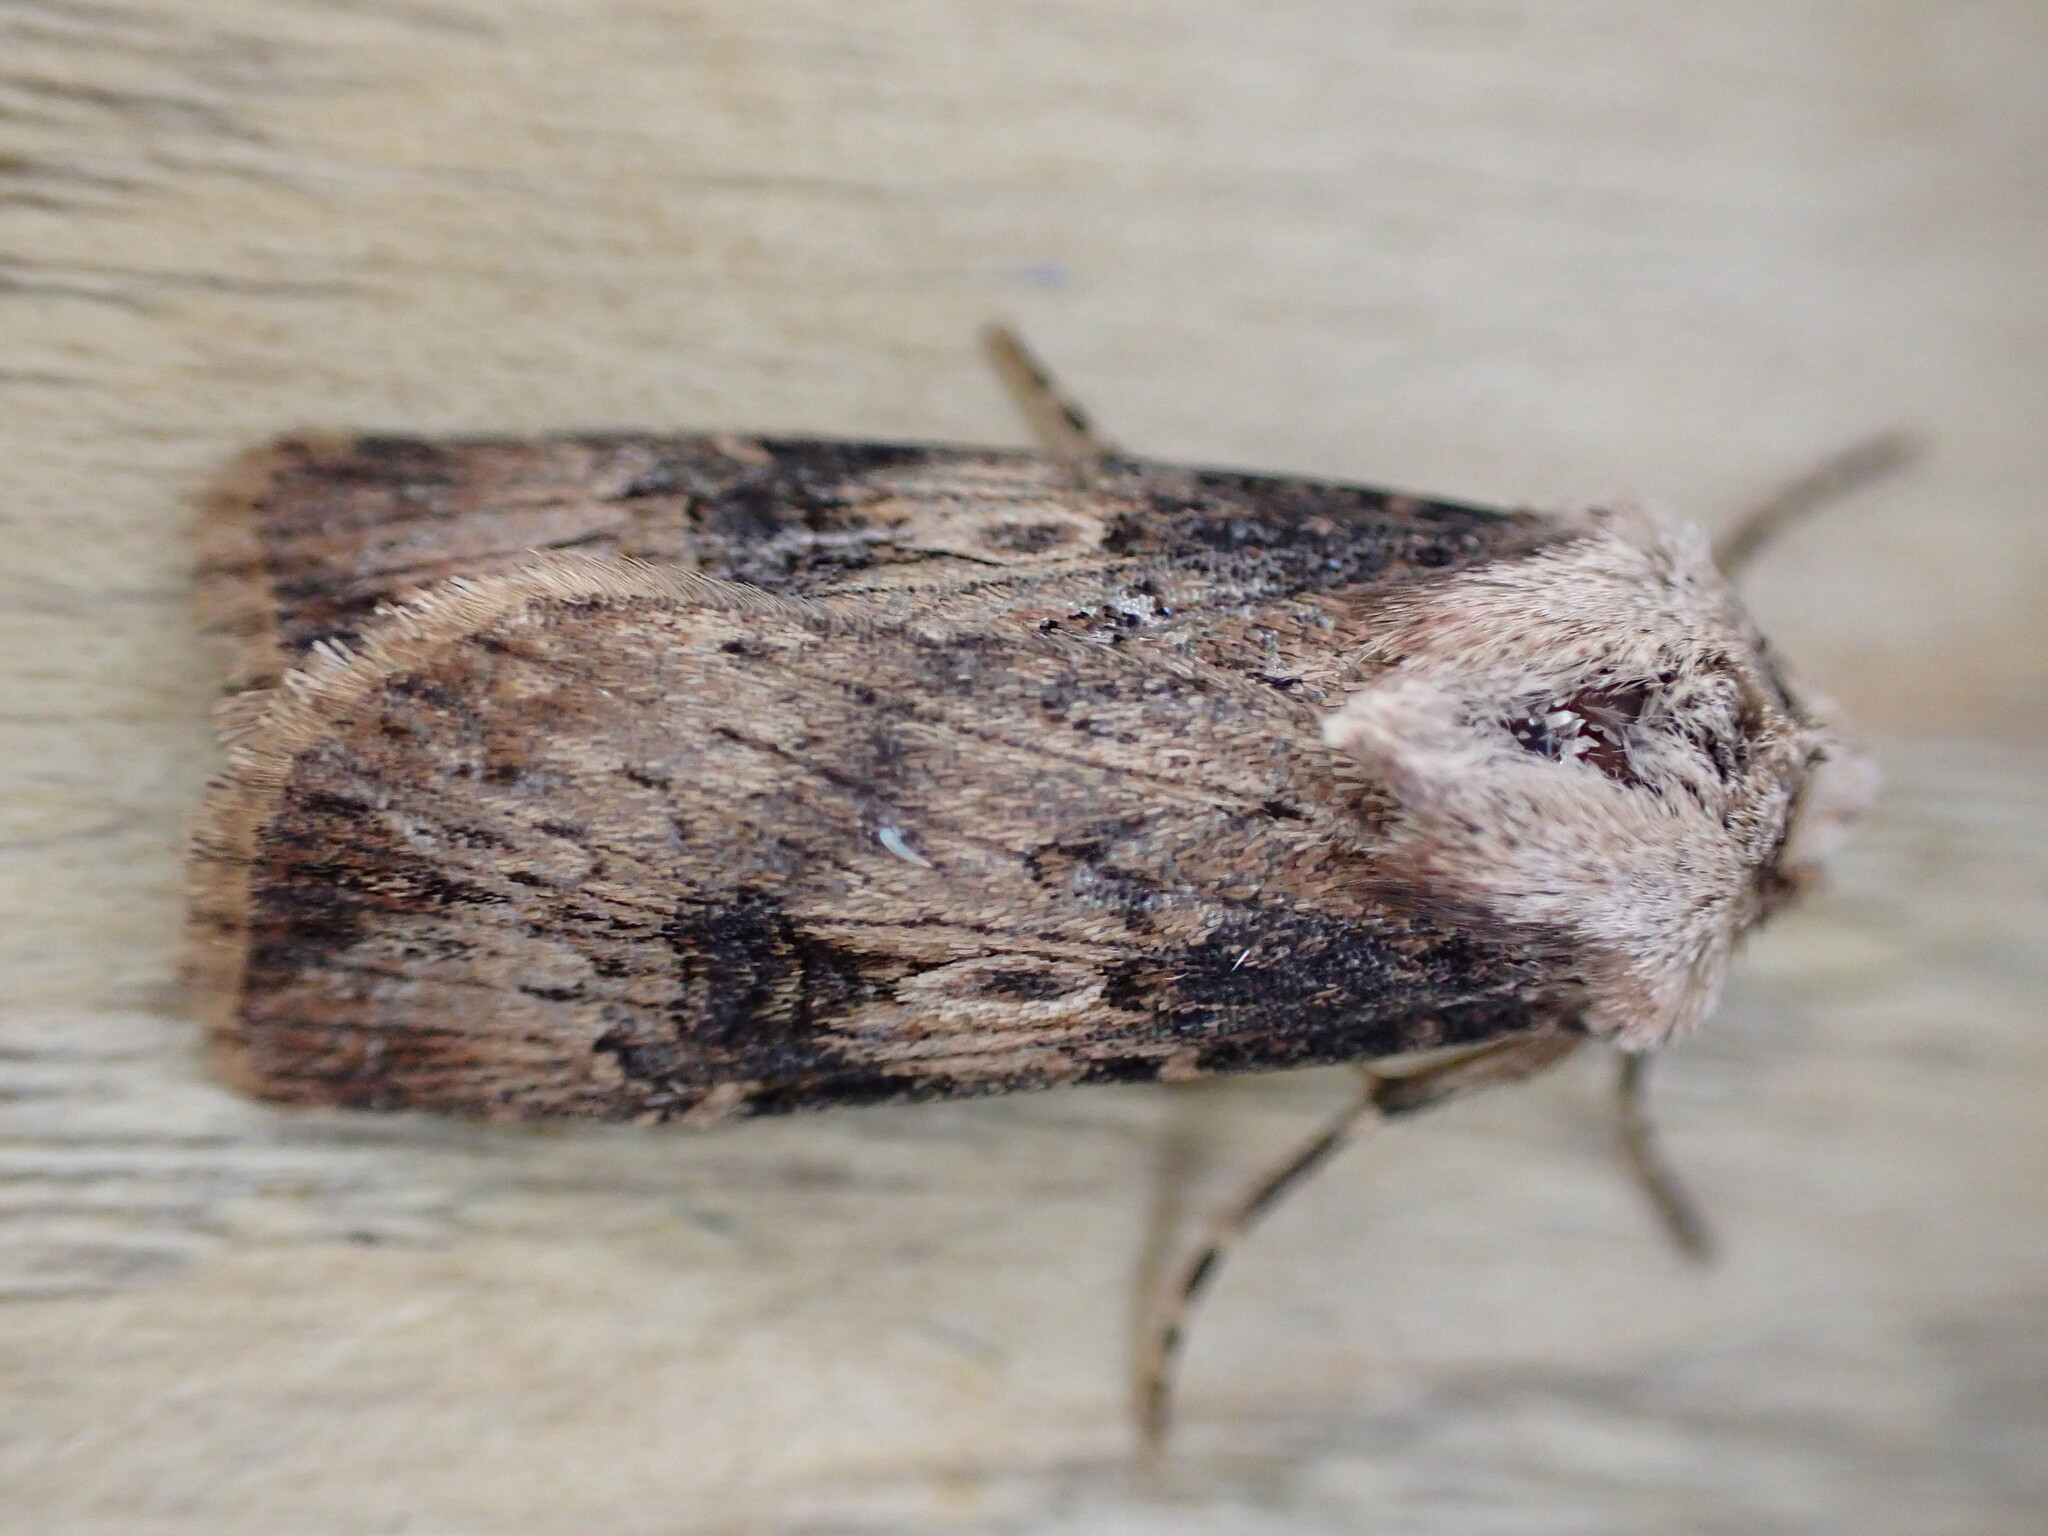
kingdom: Animalia
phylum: Arthropoda
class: Insecta
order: Lepidoptera
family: Noctuidae
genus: Agrotis
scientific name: Agrotis puta
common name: Shuttle-shaped dart
